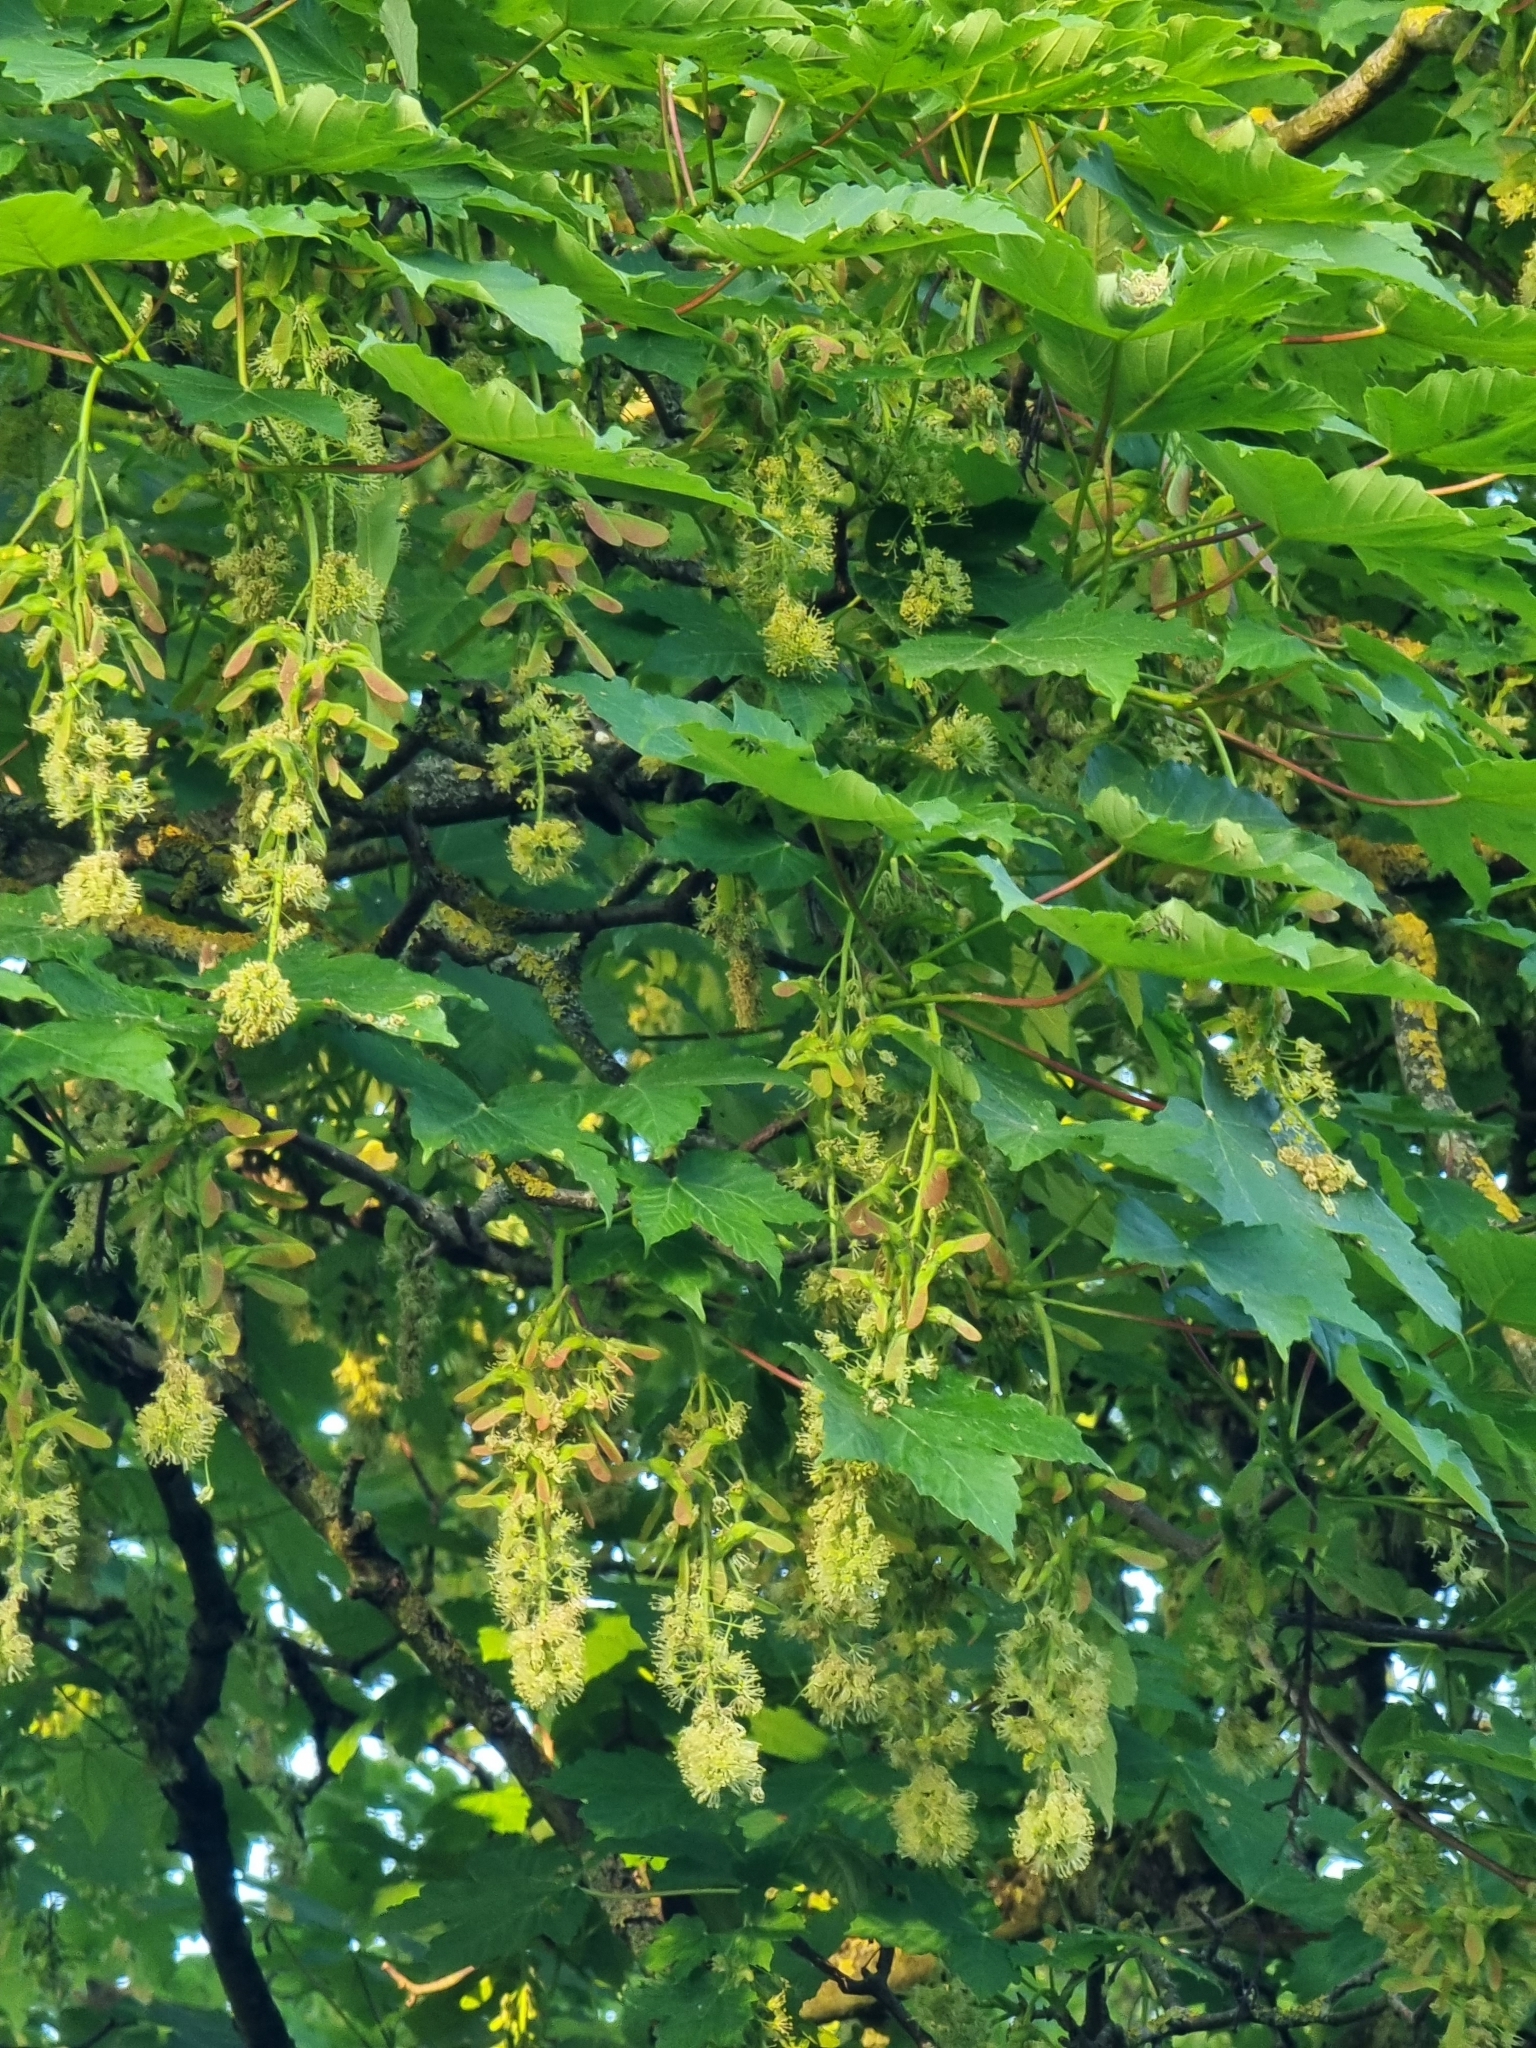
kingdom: Plantae
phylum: Tracheophyta
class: Magnoliopsida
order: Sapindales
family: Sapindaceae
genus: Acer
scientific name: Acer pseudoplatanus
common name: Sycamore
